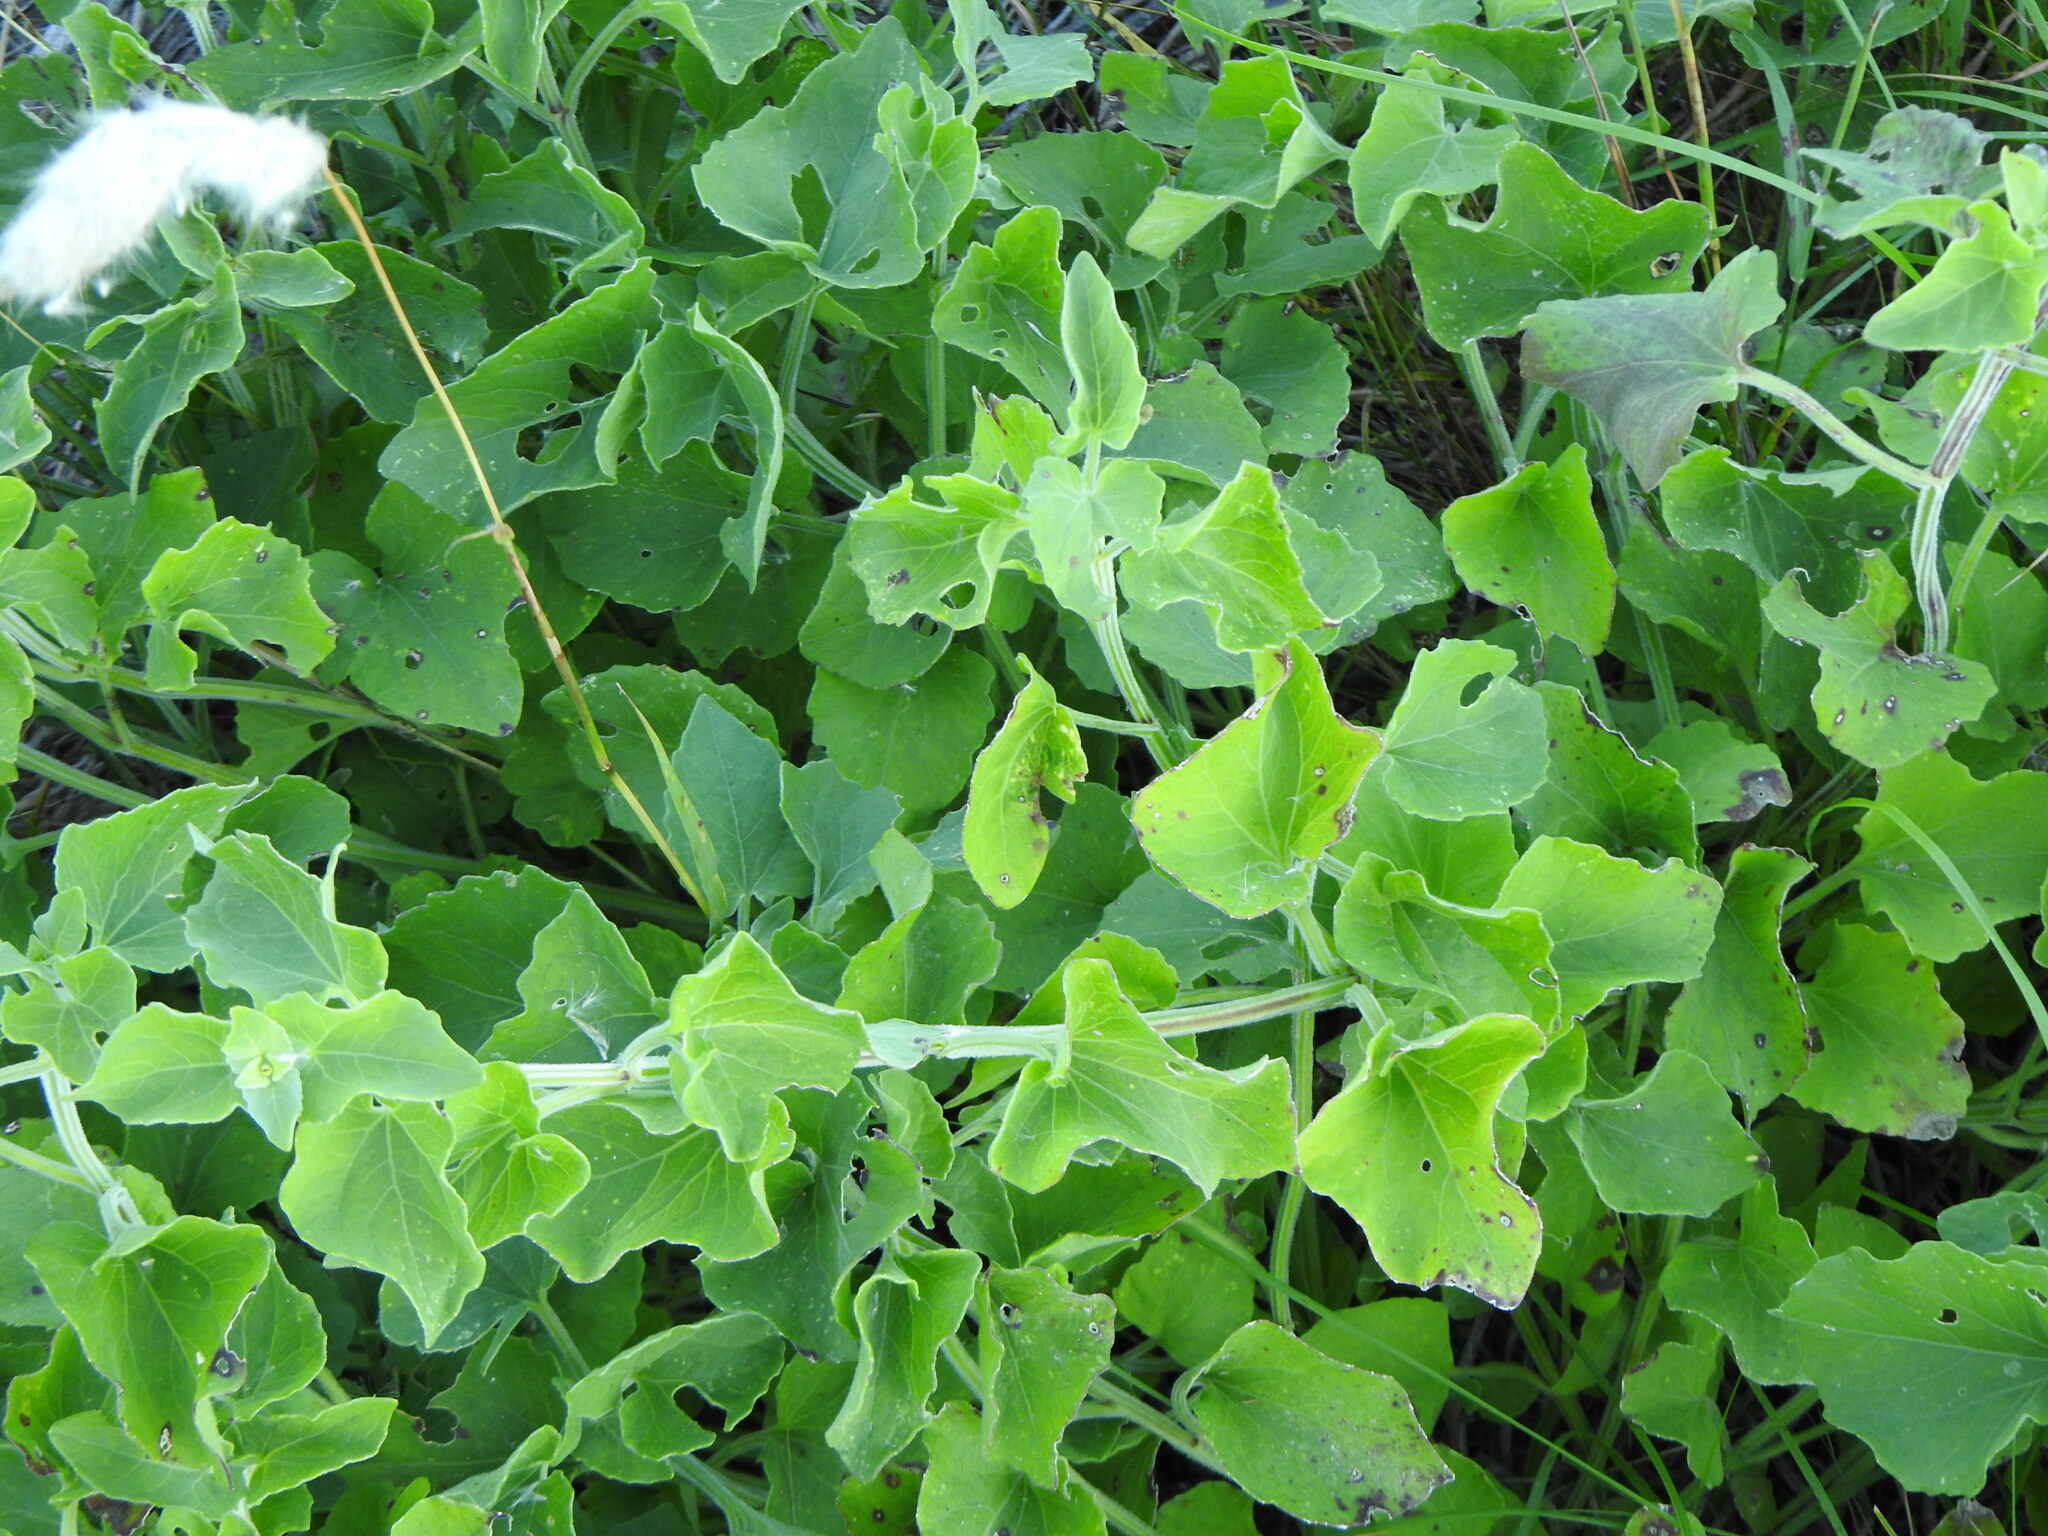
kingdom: Plantae
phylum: Tracheophyta
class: Magnoliopsida
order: Asterales
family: Asteraceae
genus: Mikania
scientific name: Mikania cordifolia
